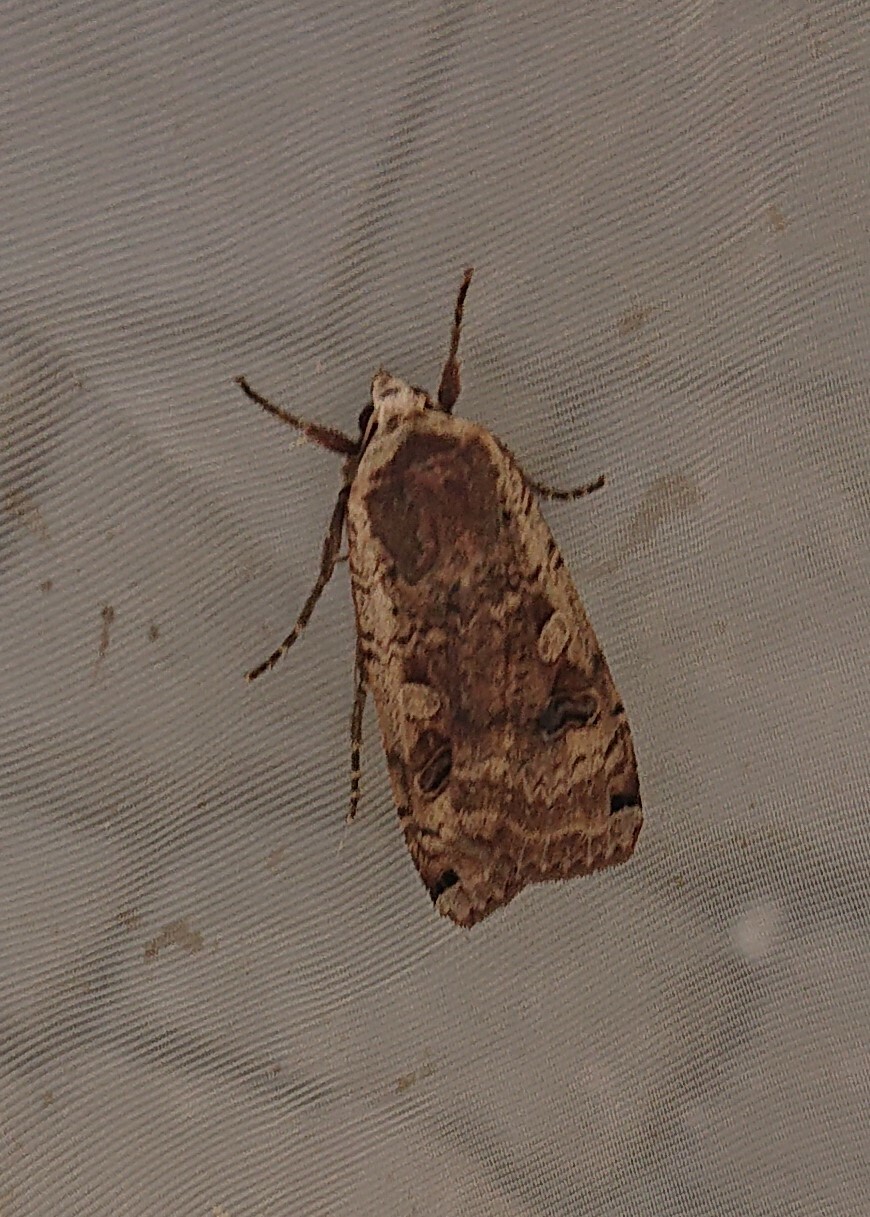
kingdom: Animalia
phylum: Arthropoda
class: Insecta
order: Lepidoptera
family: Noctuidae
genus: Noctua
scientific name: Noctua pronuba
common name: Large yellow underwing
